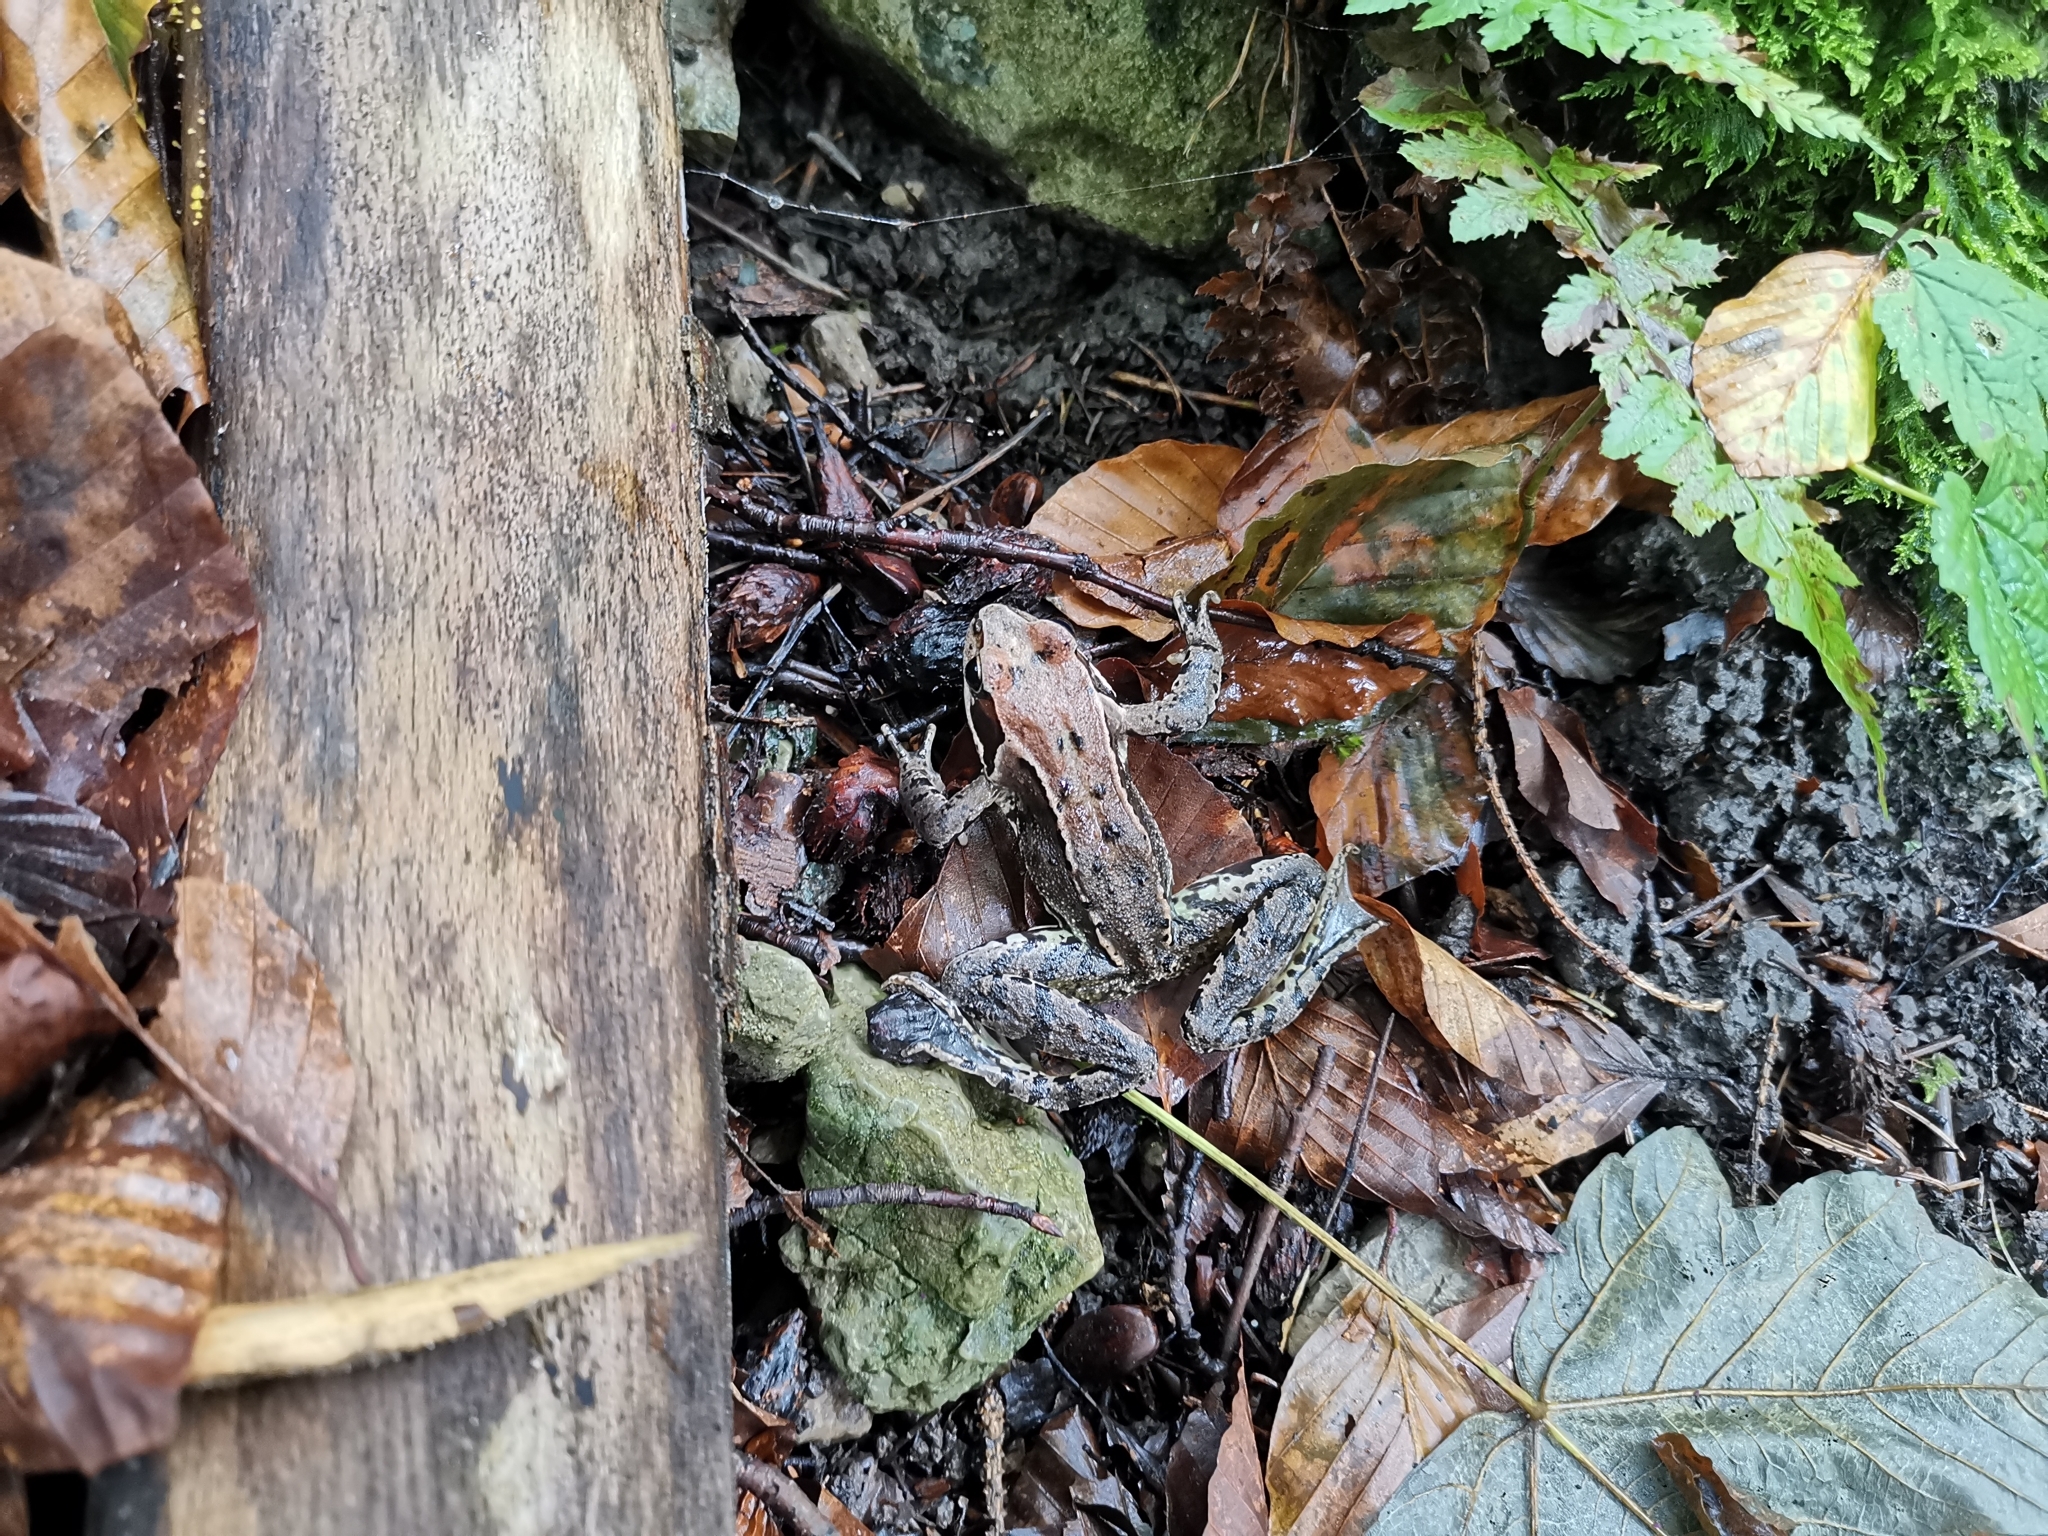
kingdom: Animalia
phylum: Chordata
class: Amphibia
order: Anura
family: Ranidae
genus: Rana
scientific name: Rana temporaria
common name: Common frog
